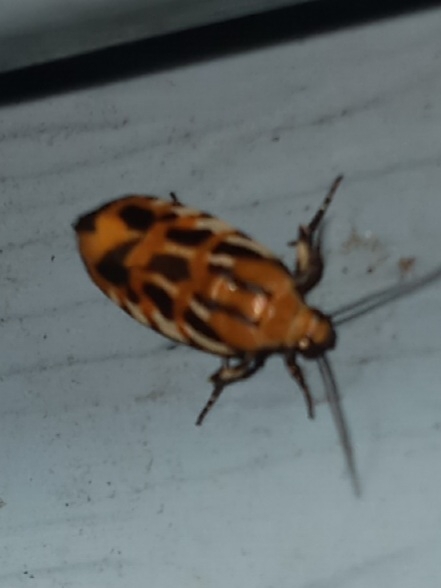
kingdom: Animalia
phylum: Arthropoda
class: Insecta
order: Lepidoptera
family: Noctuidae
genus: Acontia
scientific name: Acontia leo
